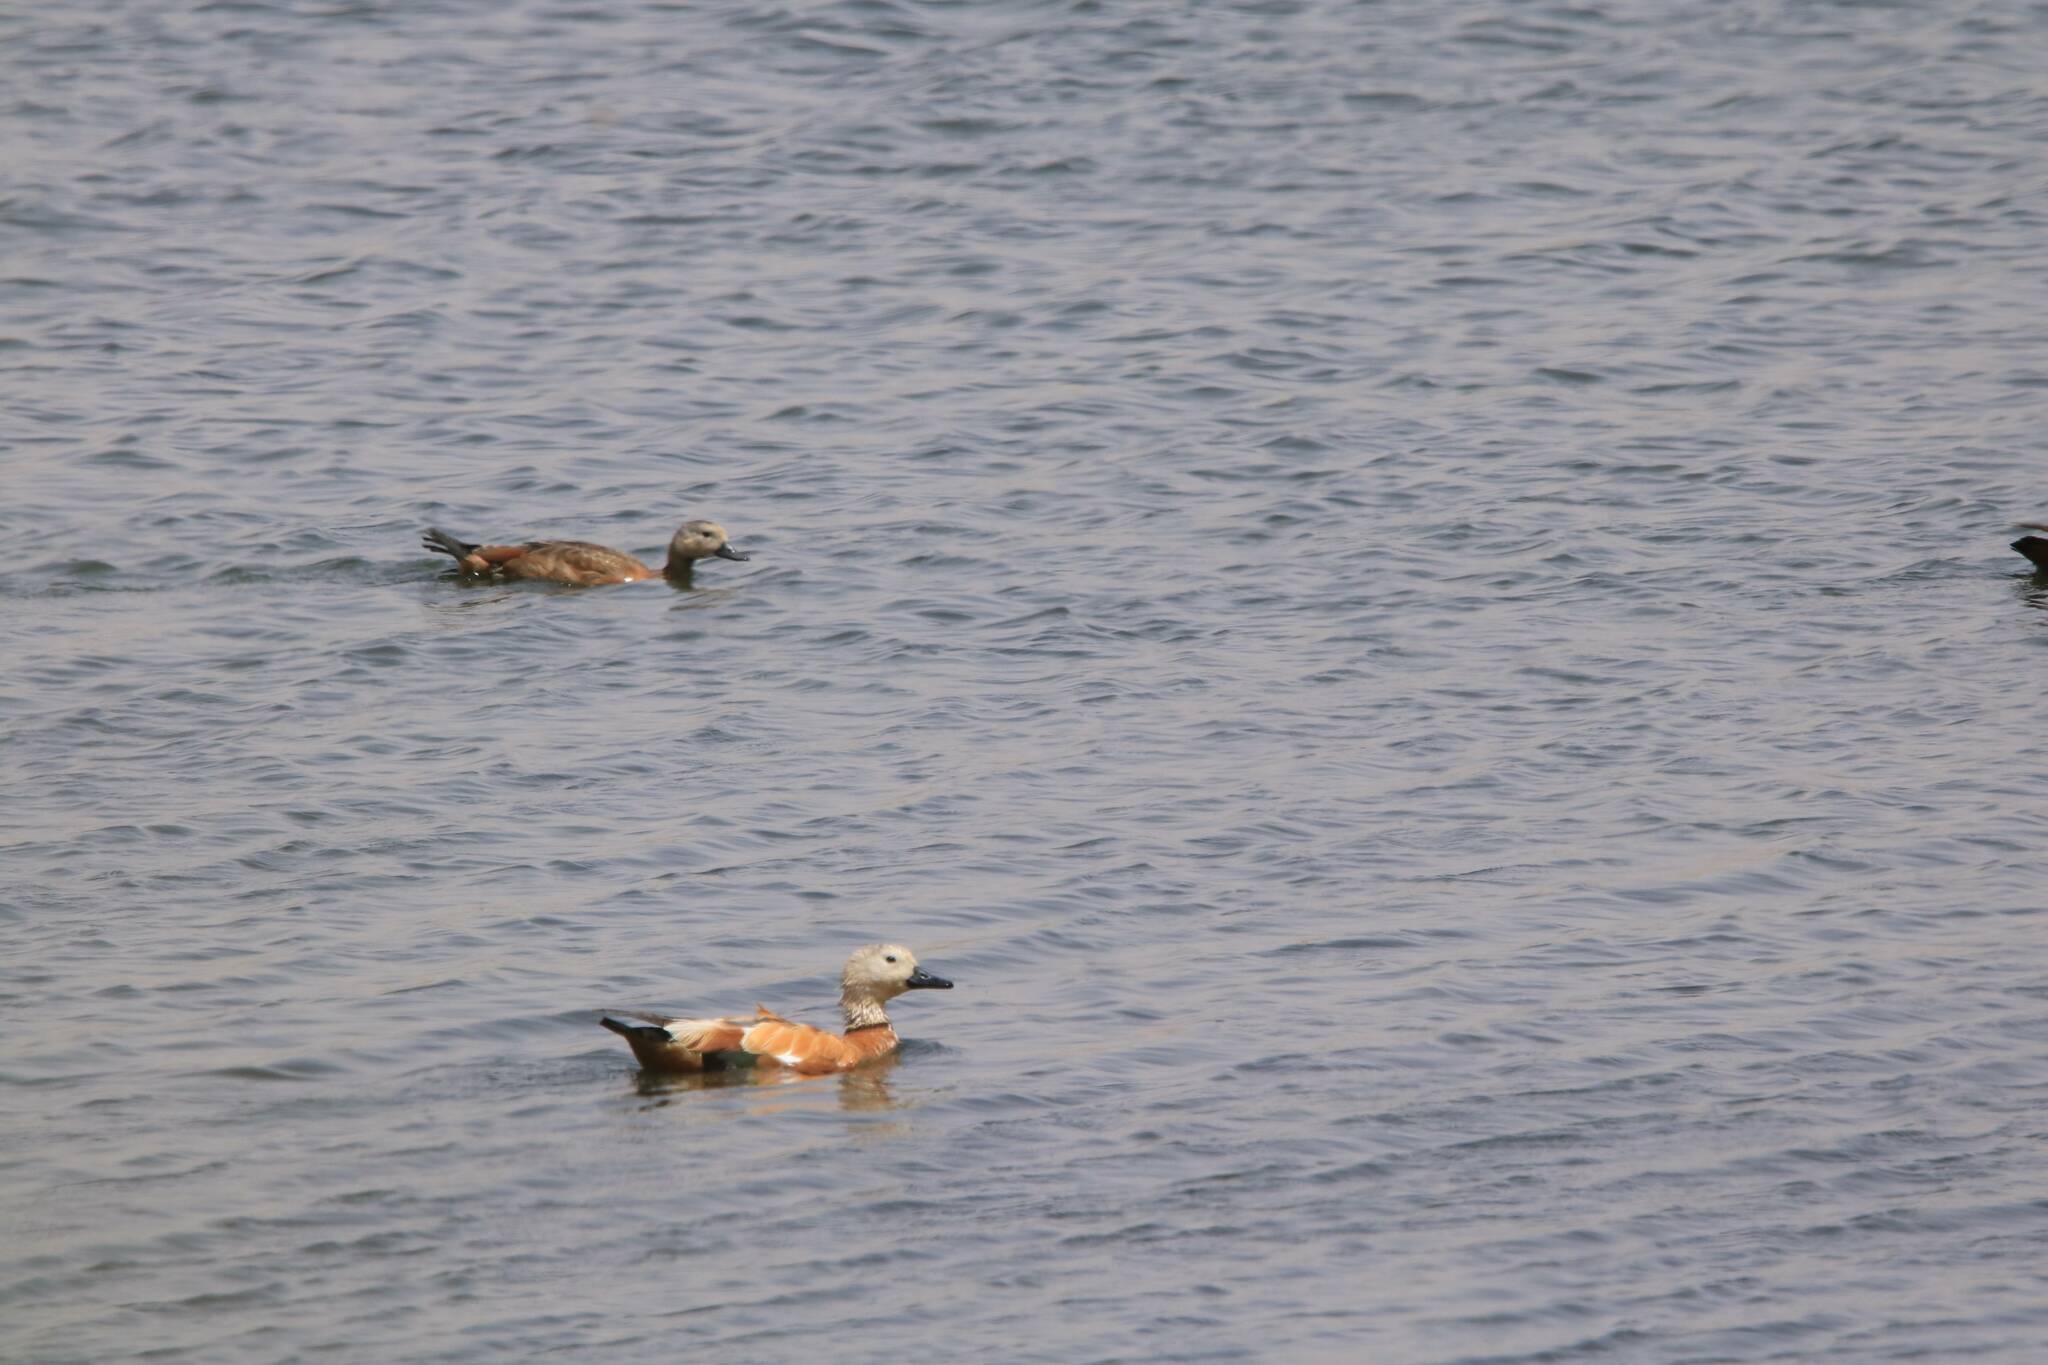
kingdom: Animalia
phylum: Chordata
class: Aves
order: Anseriformes
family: Anatidae
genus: Tadorna
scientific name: Tadorna ferruginea
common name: Ruddy shelduck
